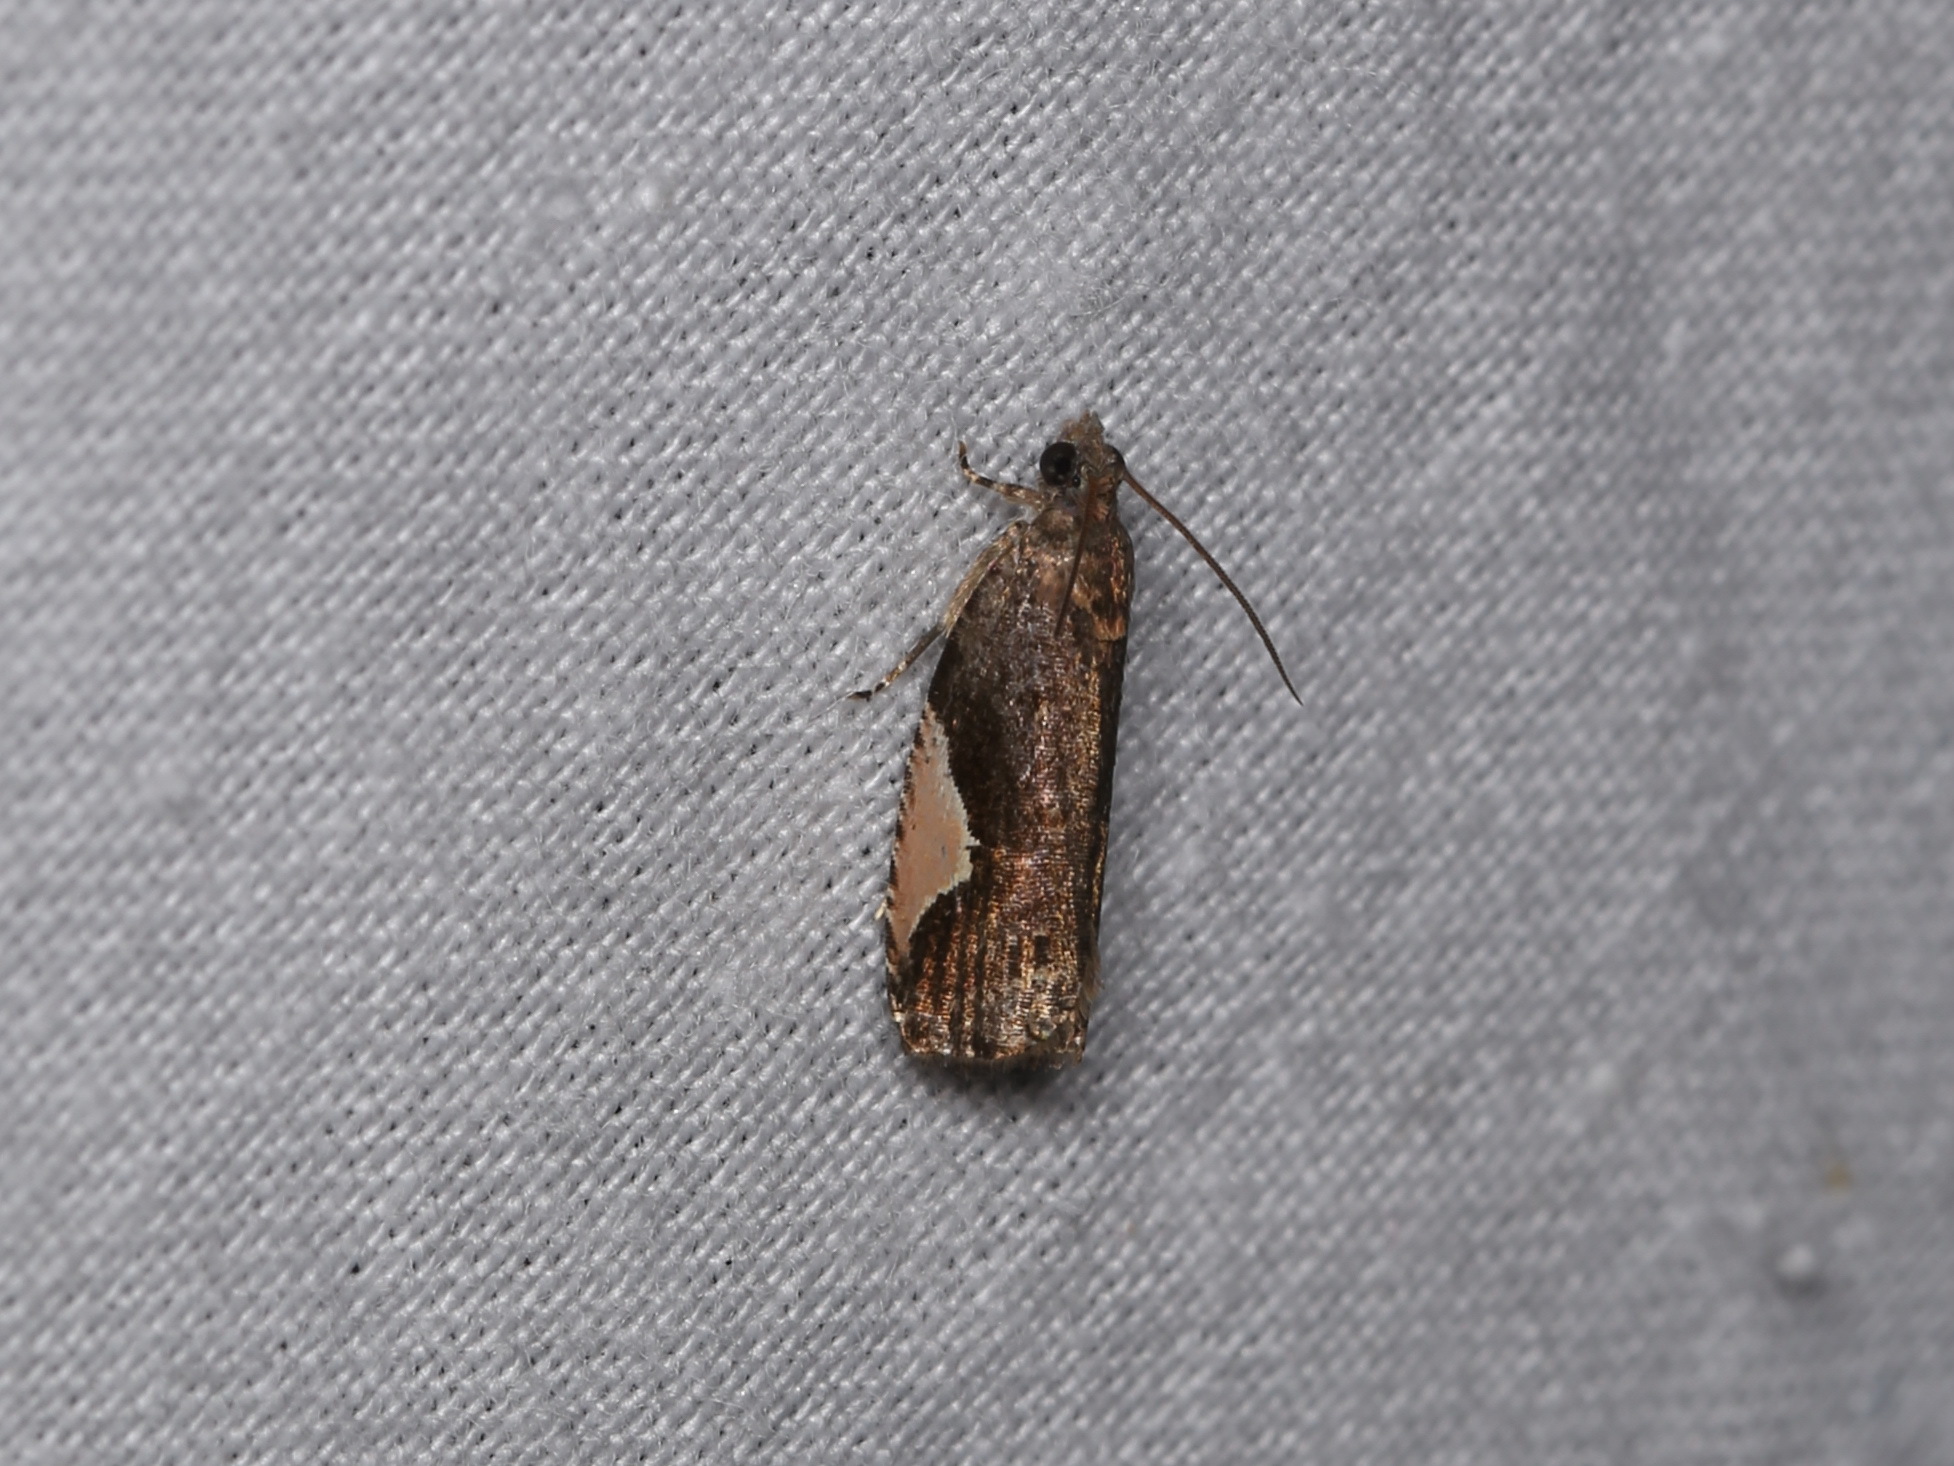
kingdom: Animalia
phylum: Arthropoda
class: Insecta
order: Lepidoptera
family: Tortricidae
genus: Statherotis
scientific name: Statherotis discana
